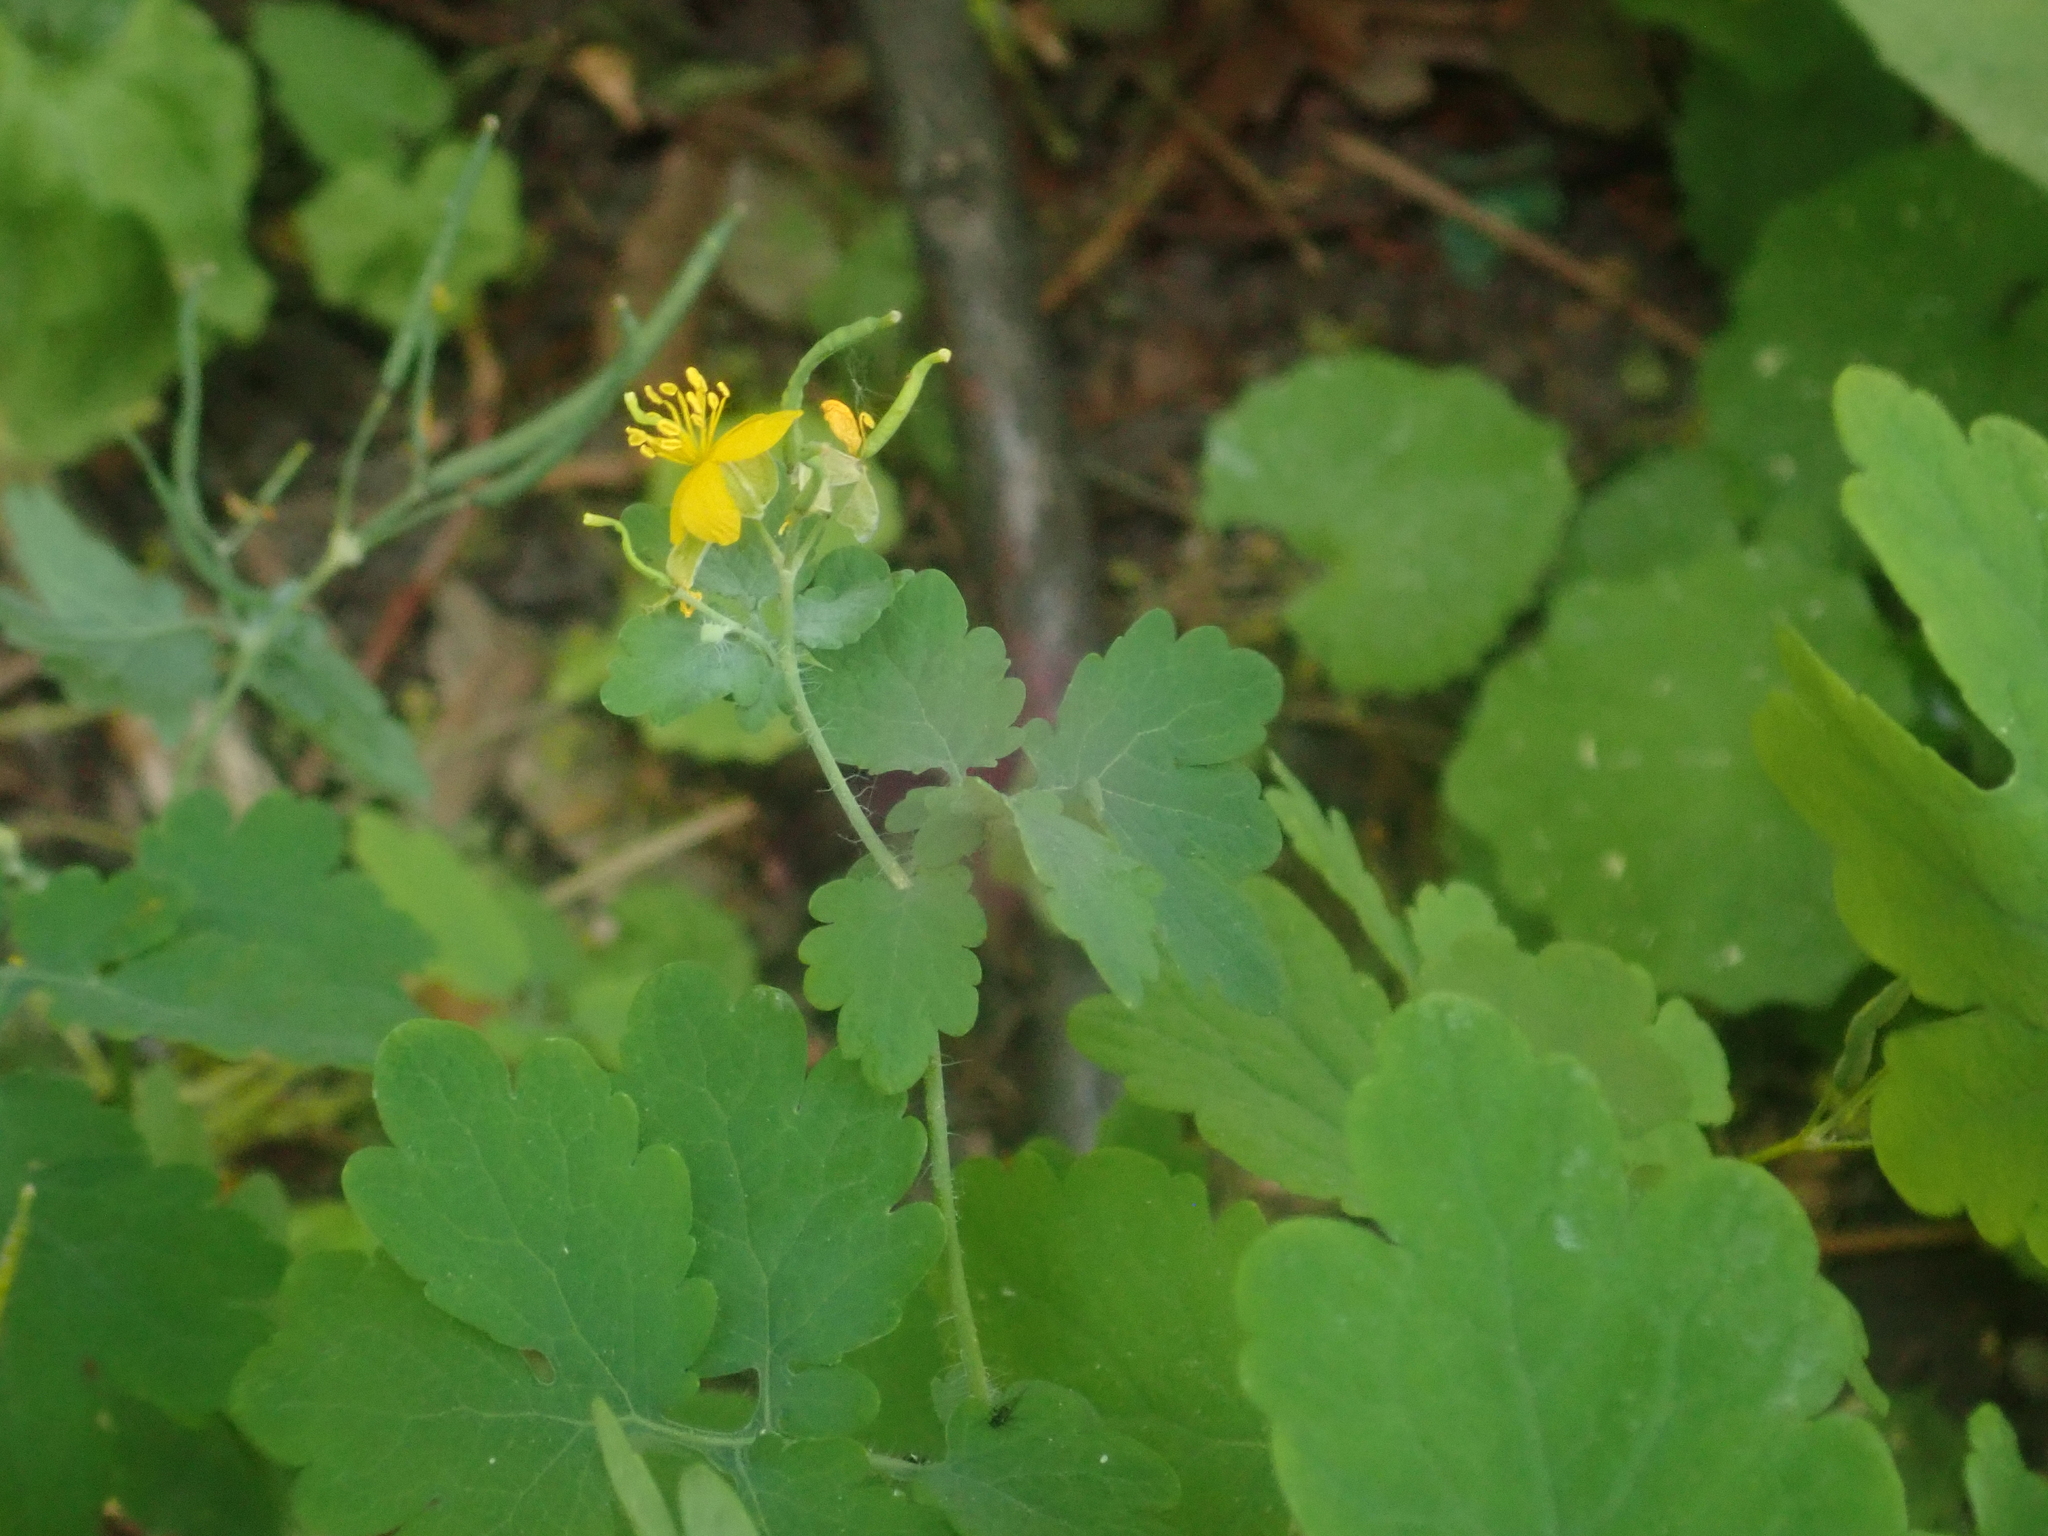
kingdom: Plantae
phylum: Tracheophyta
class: Magnoliopsida
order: Ranunculales
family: Papaveraceae
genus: Chelidonium
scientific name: Chelidonium majus
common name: Greater celandine
